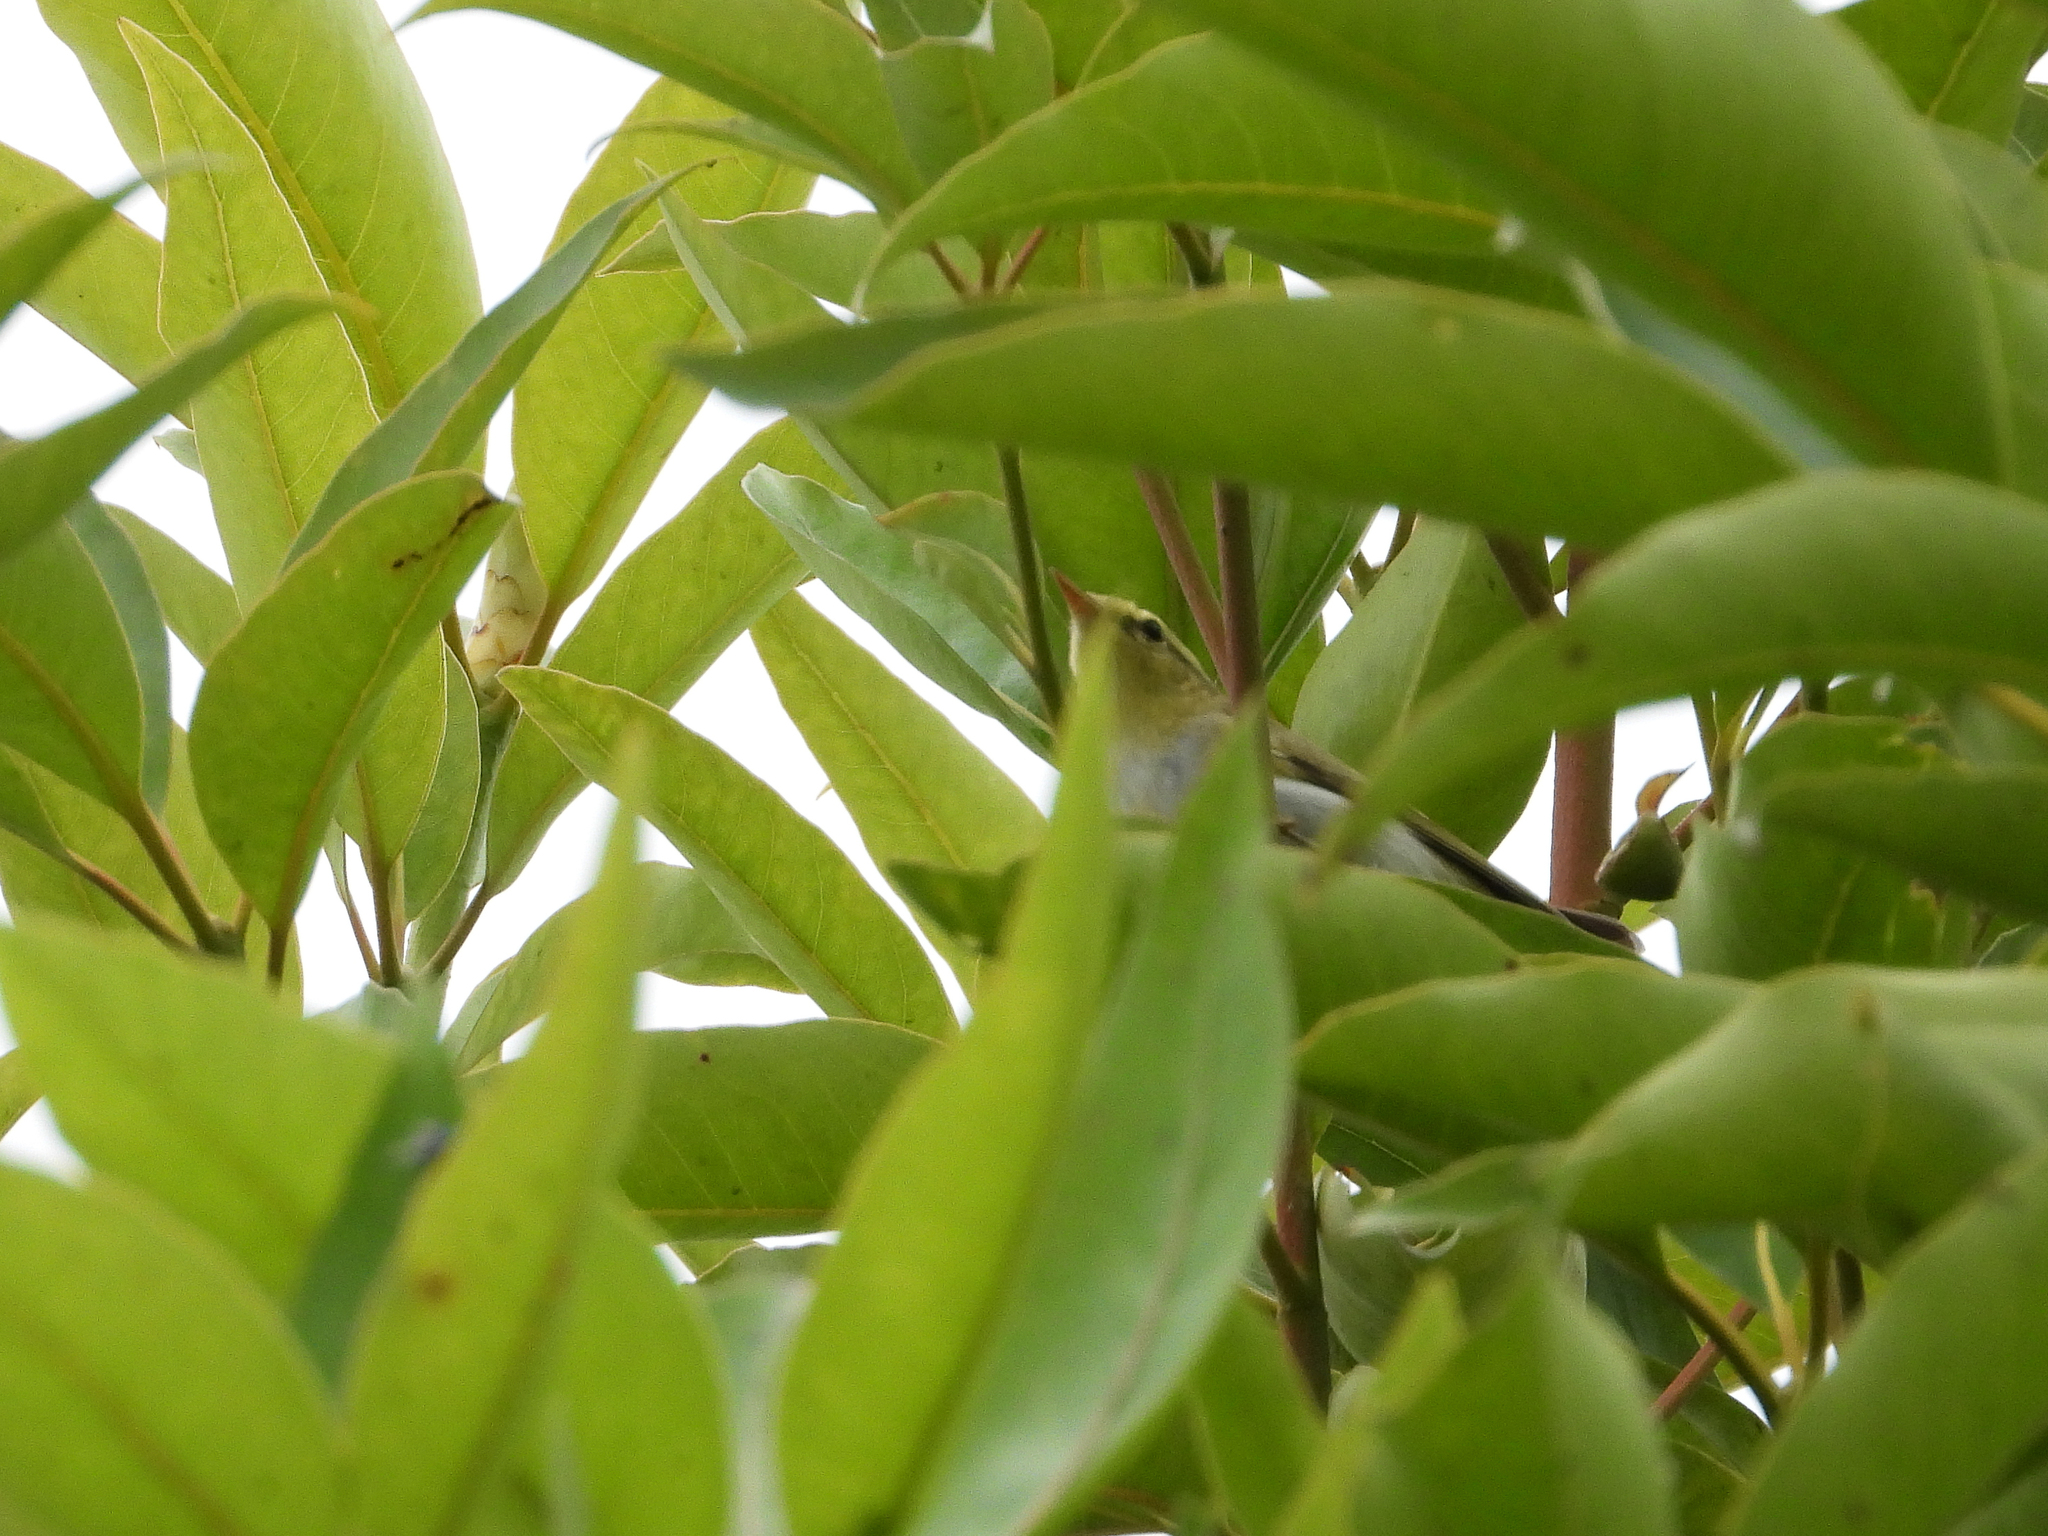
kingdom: Animalia
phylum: Chordata
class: Aves
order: Passeriformes
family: Phylloscopidae
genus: Phylloscopus
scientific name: Phylloscopus sibillatrix
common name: Wood warbler
